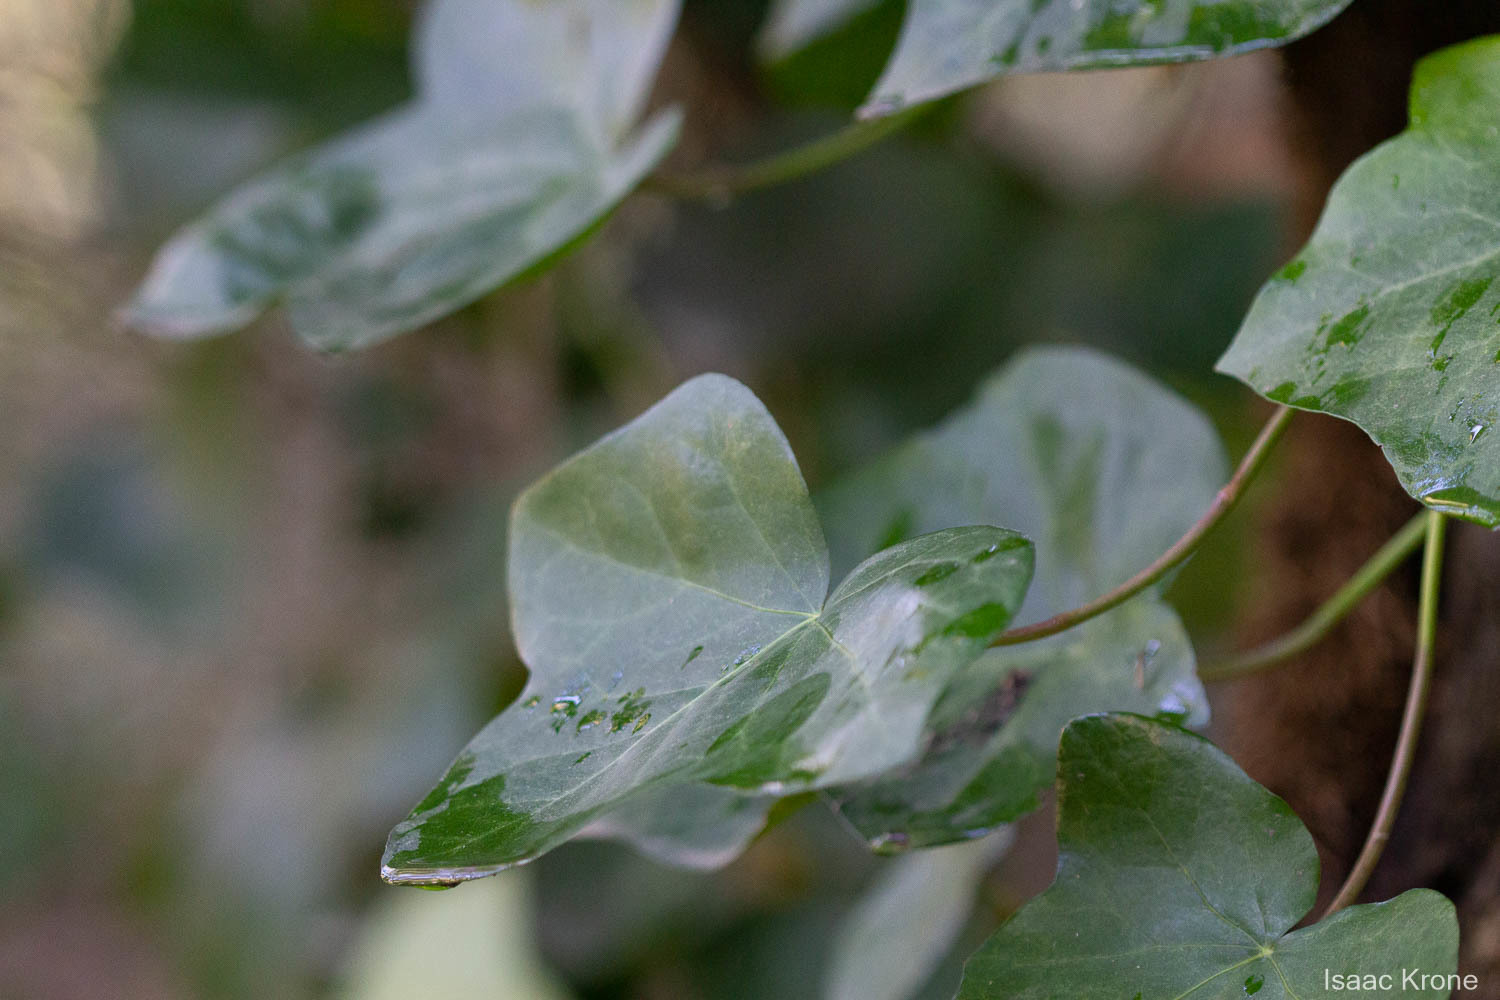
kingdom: Plantae
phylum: Tracheophyta
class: Magnoliopsida
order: Apiales
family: Araliaceae
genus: Hedera
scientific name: Hedera helix
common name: Ivy
